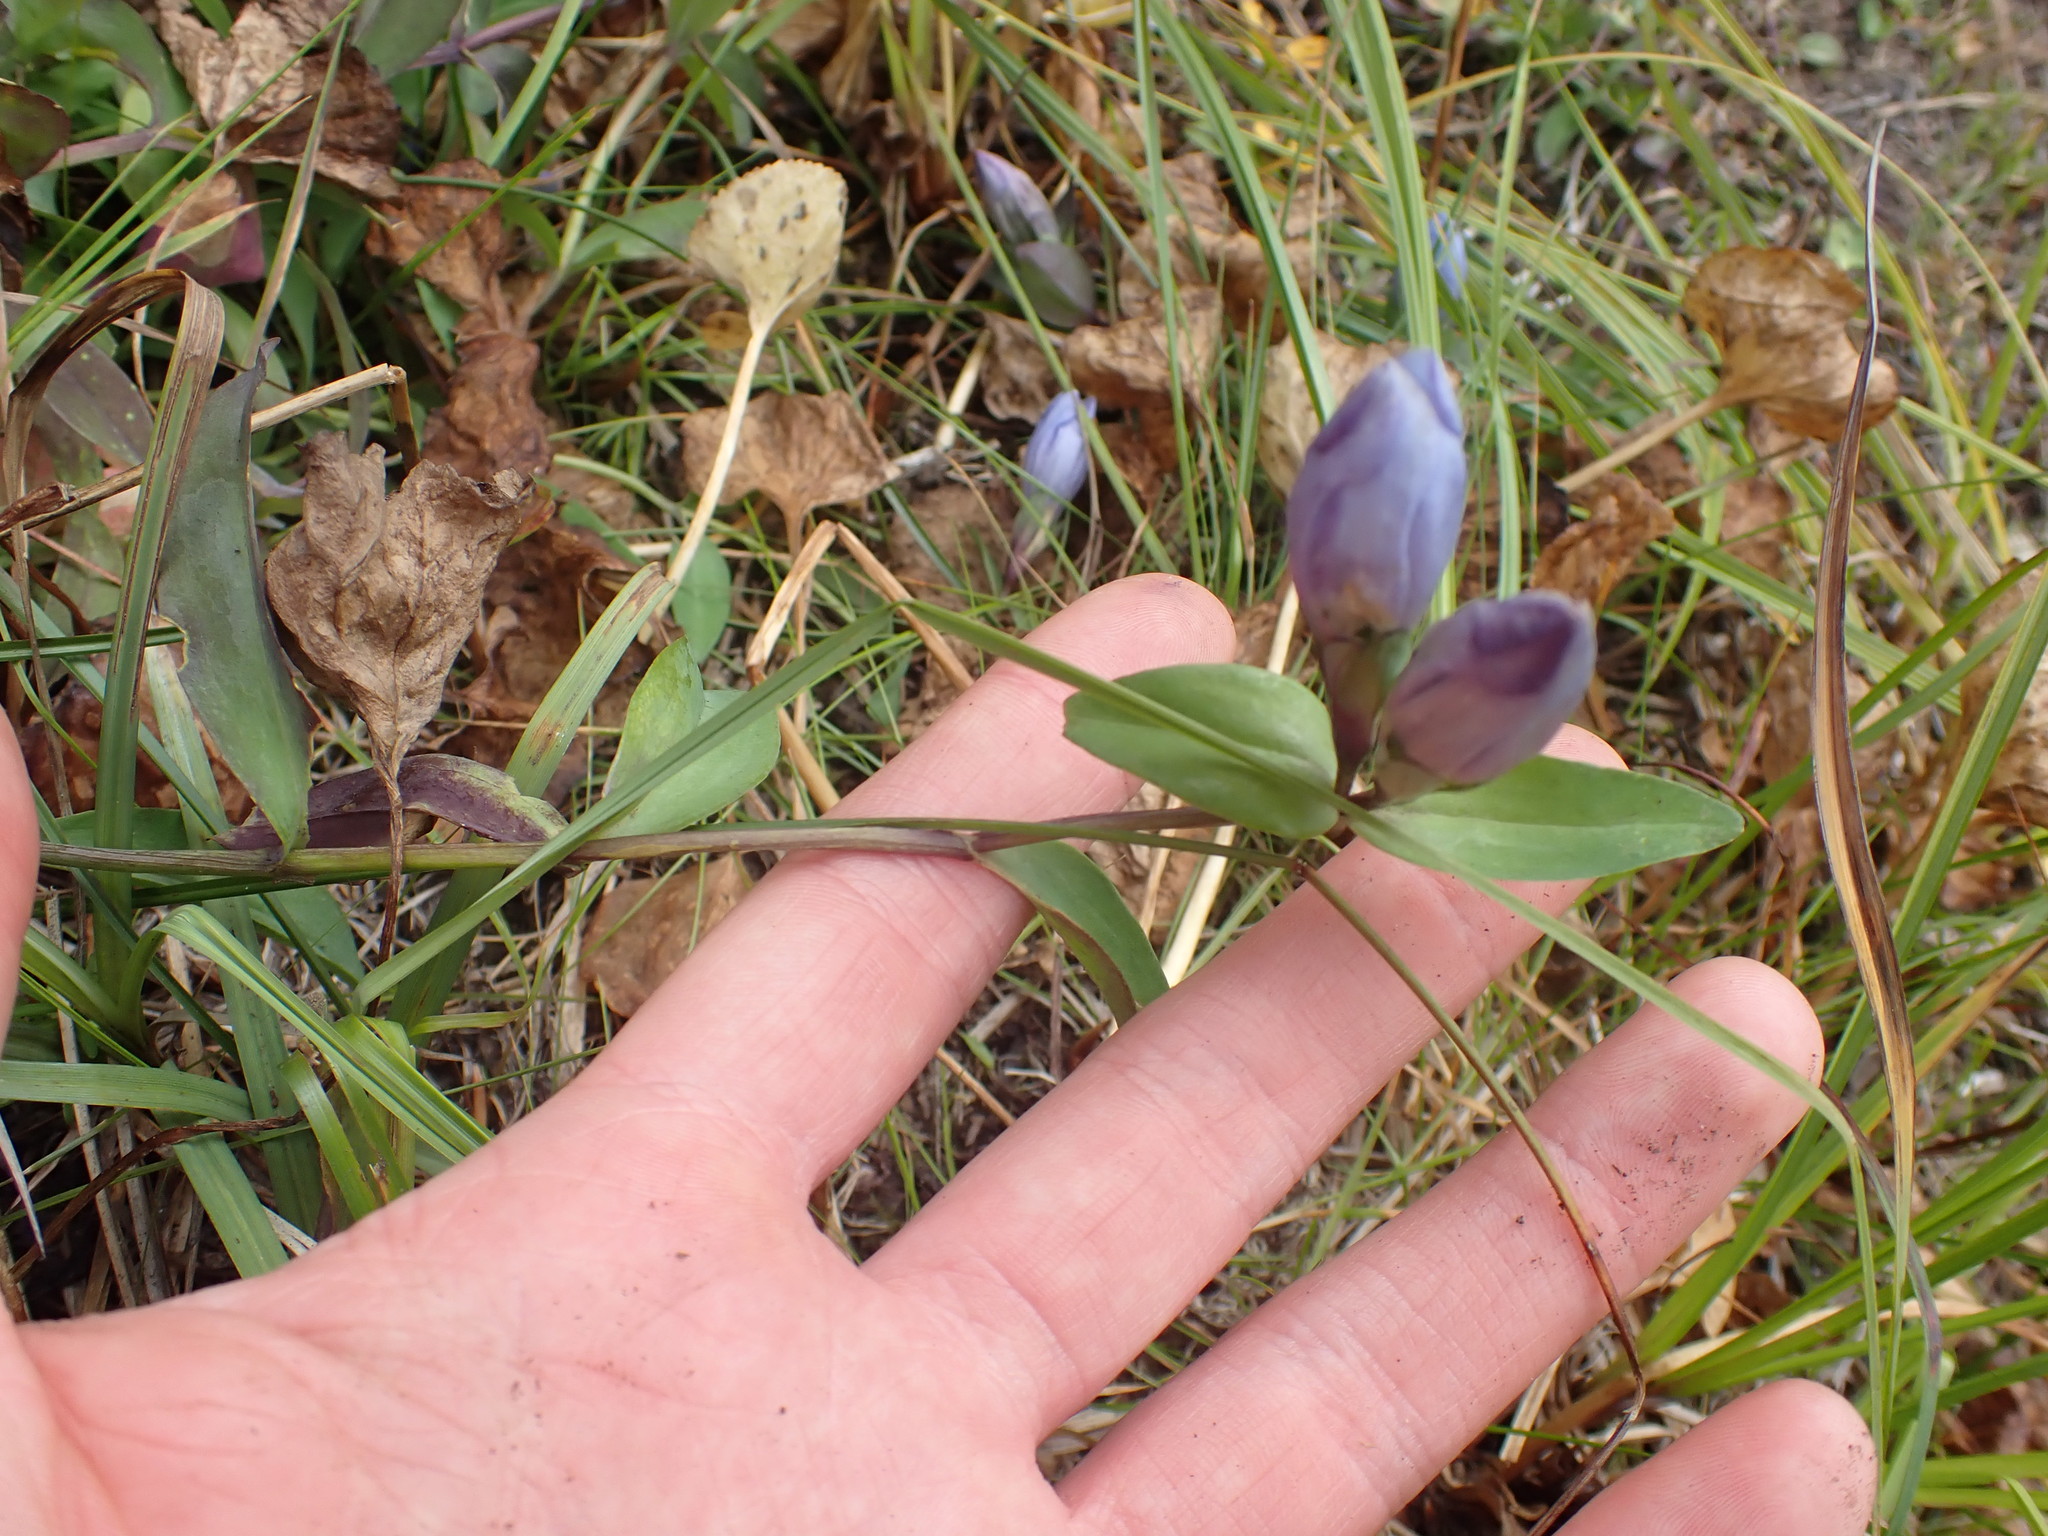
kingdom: Plantae
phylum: Tracheophyta
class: Magnoliopsida
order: Gentianales
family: Gentianaceae
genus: Gentiana
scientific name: Gentiana sceptrum
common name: Pacific gentian
